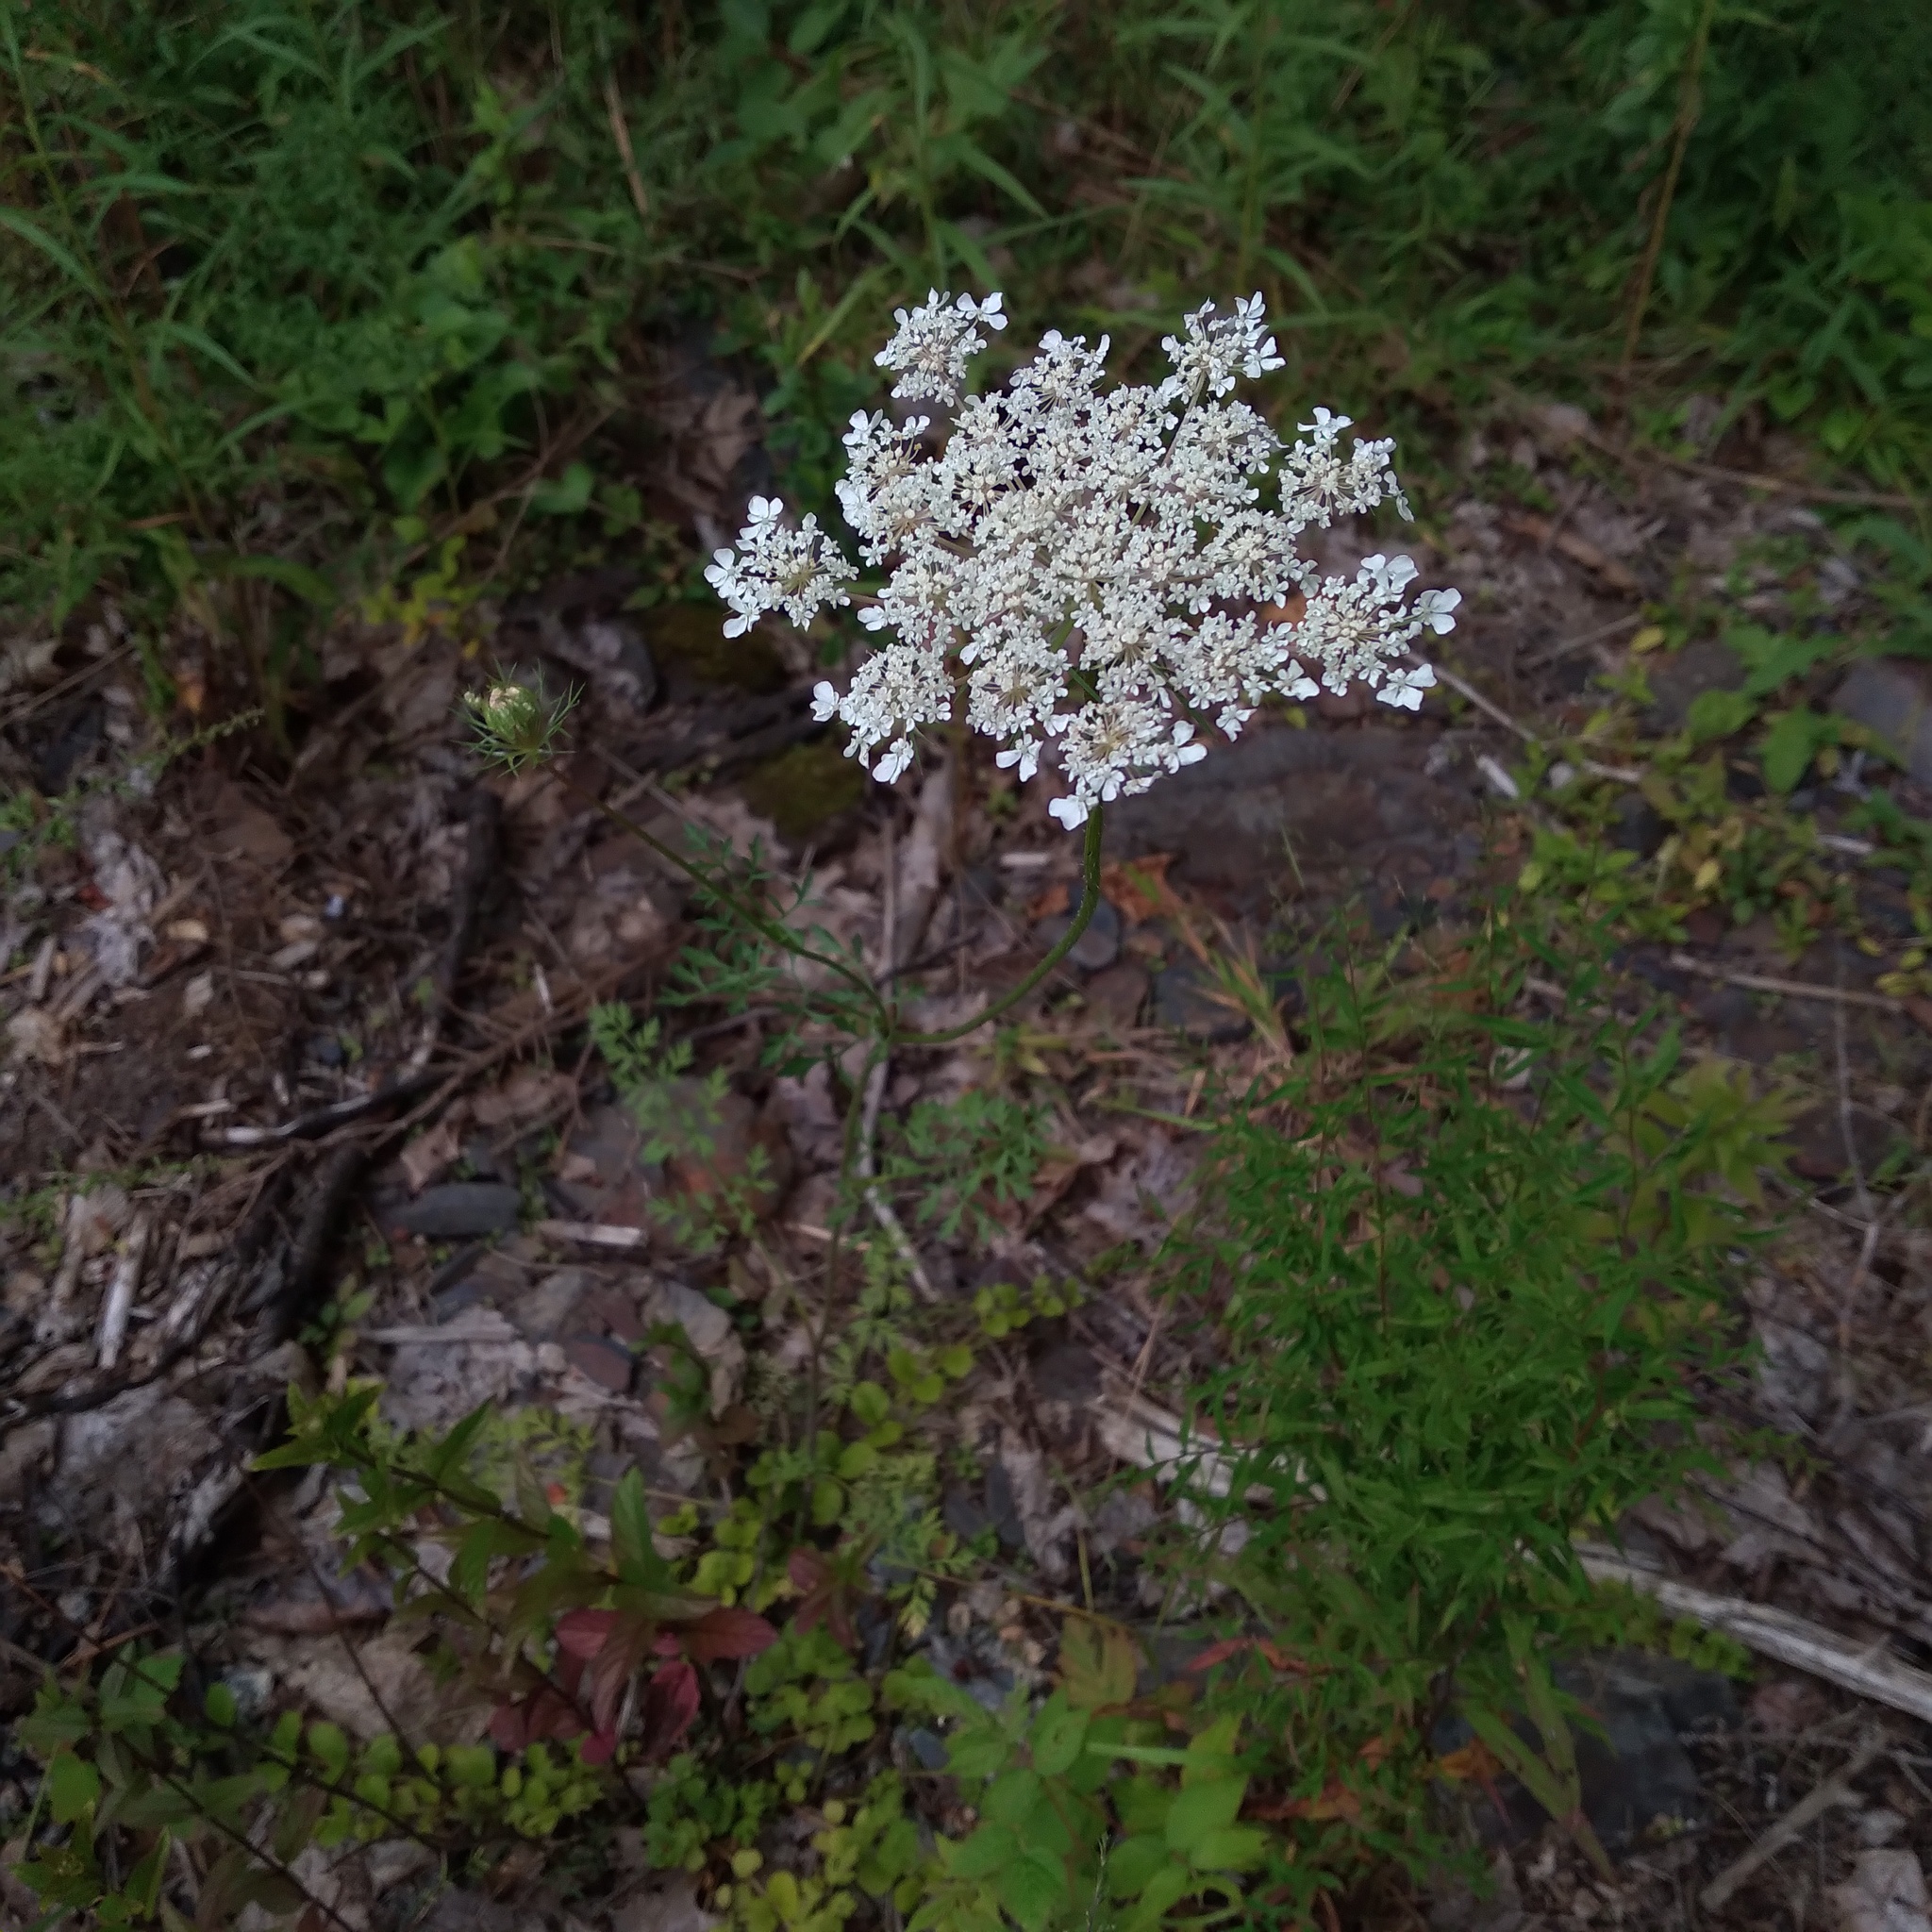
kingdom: Plantae
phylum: Tracheophyta
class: Magnoliopsida
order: Apiales
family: Apiaceae
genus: Daucus
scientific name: Daucus carota
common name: Wild carrot
